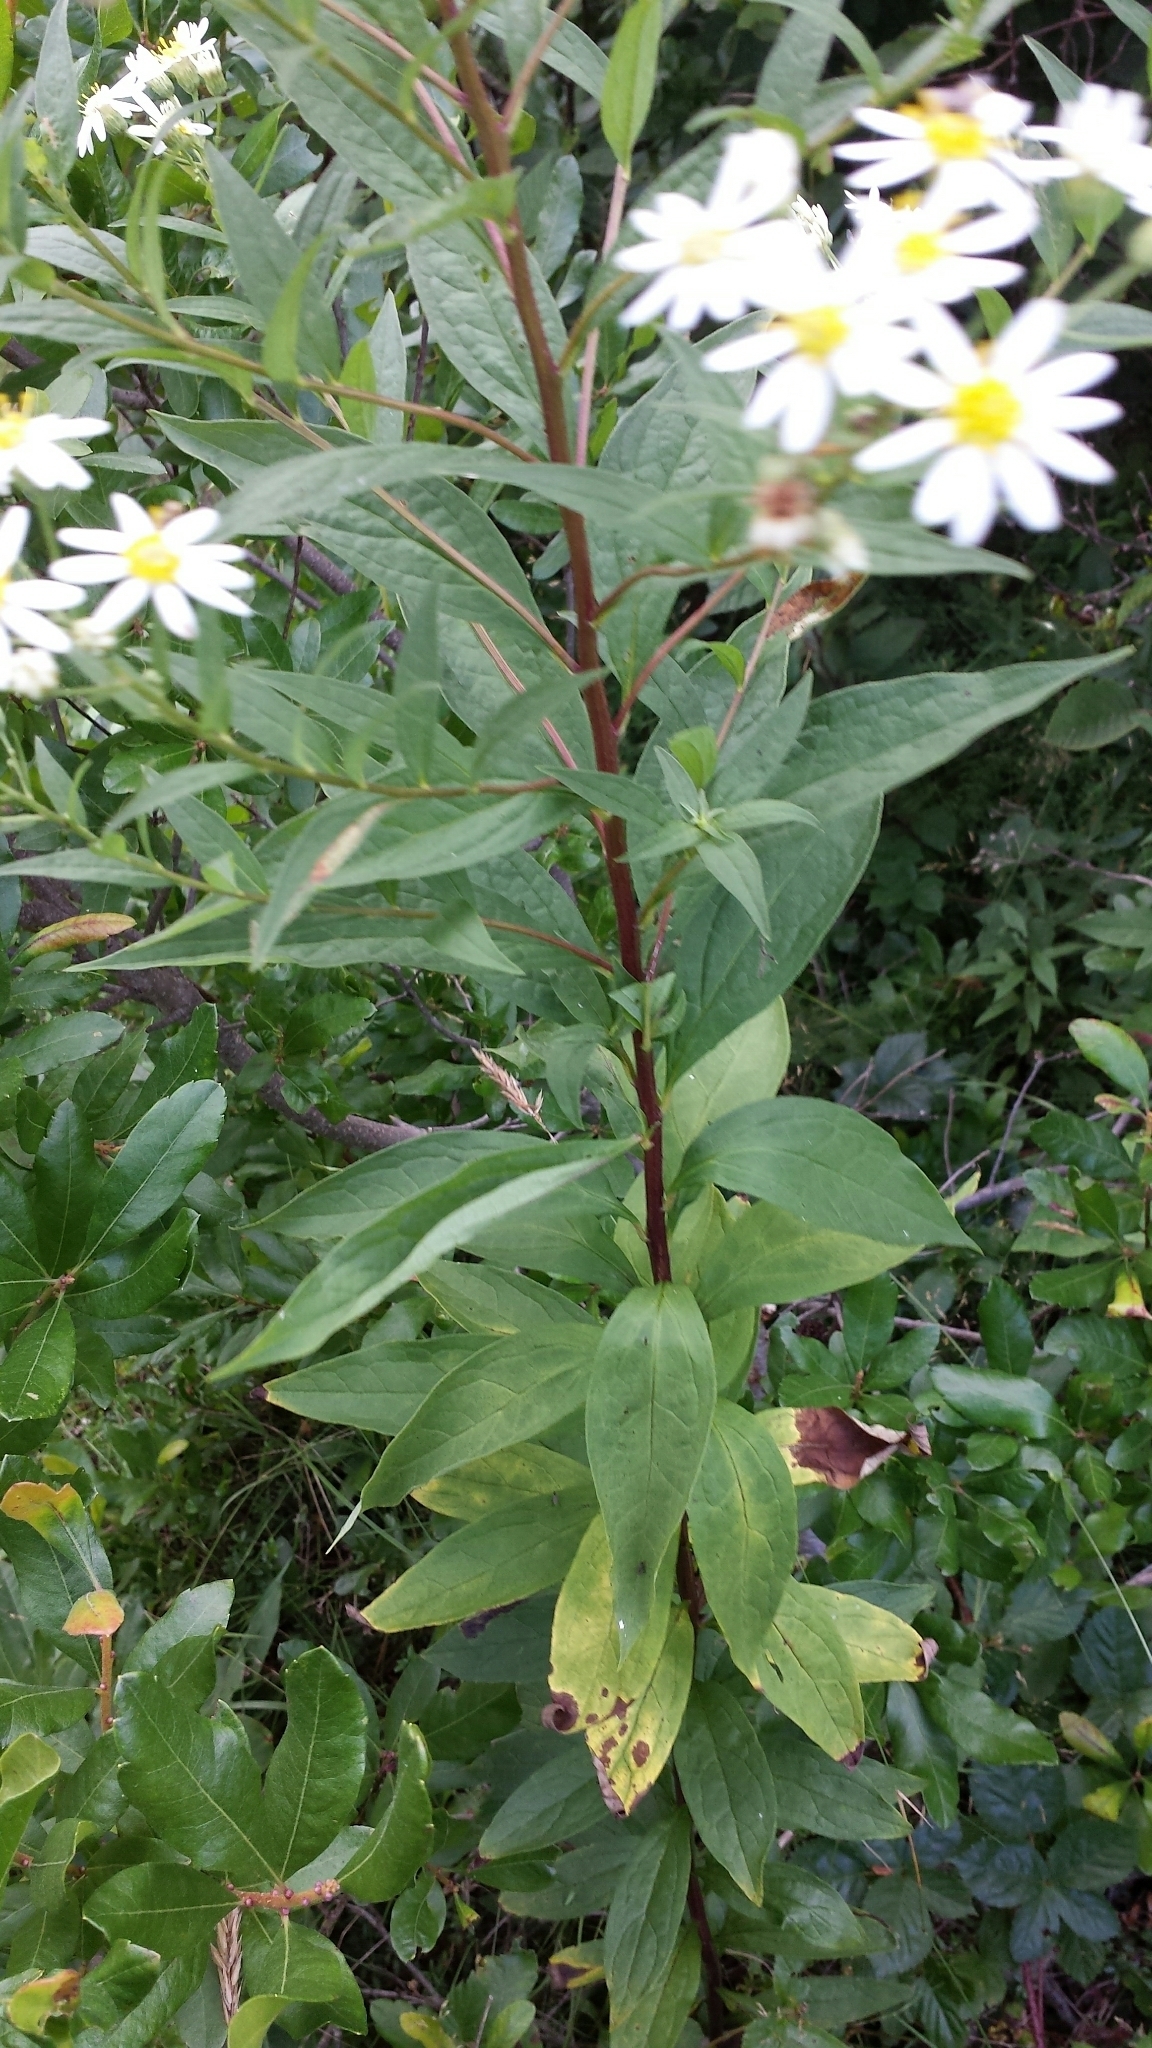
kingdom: Plantae
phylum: Tracheophyta
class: Magnoliopsida
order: Asterales
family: Asteraceae
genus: Doellingeria
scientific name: Doellingeria umbellata
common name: Flat-top white aster
